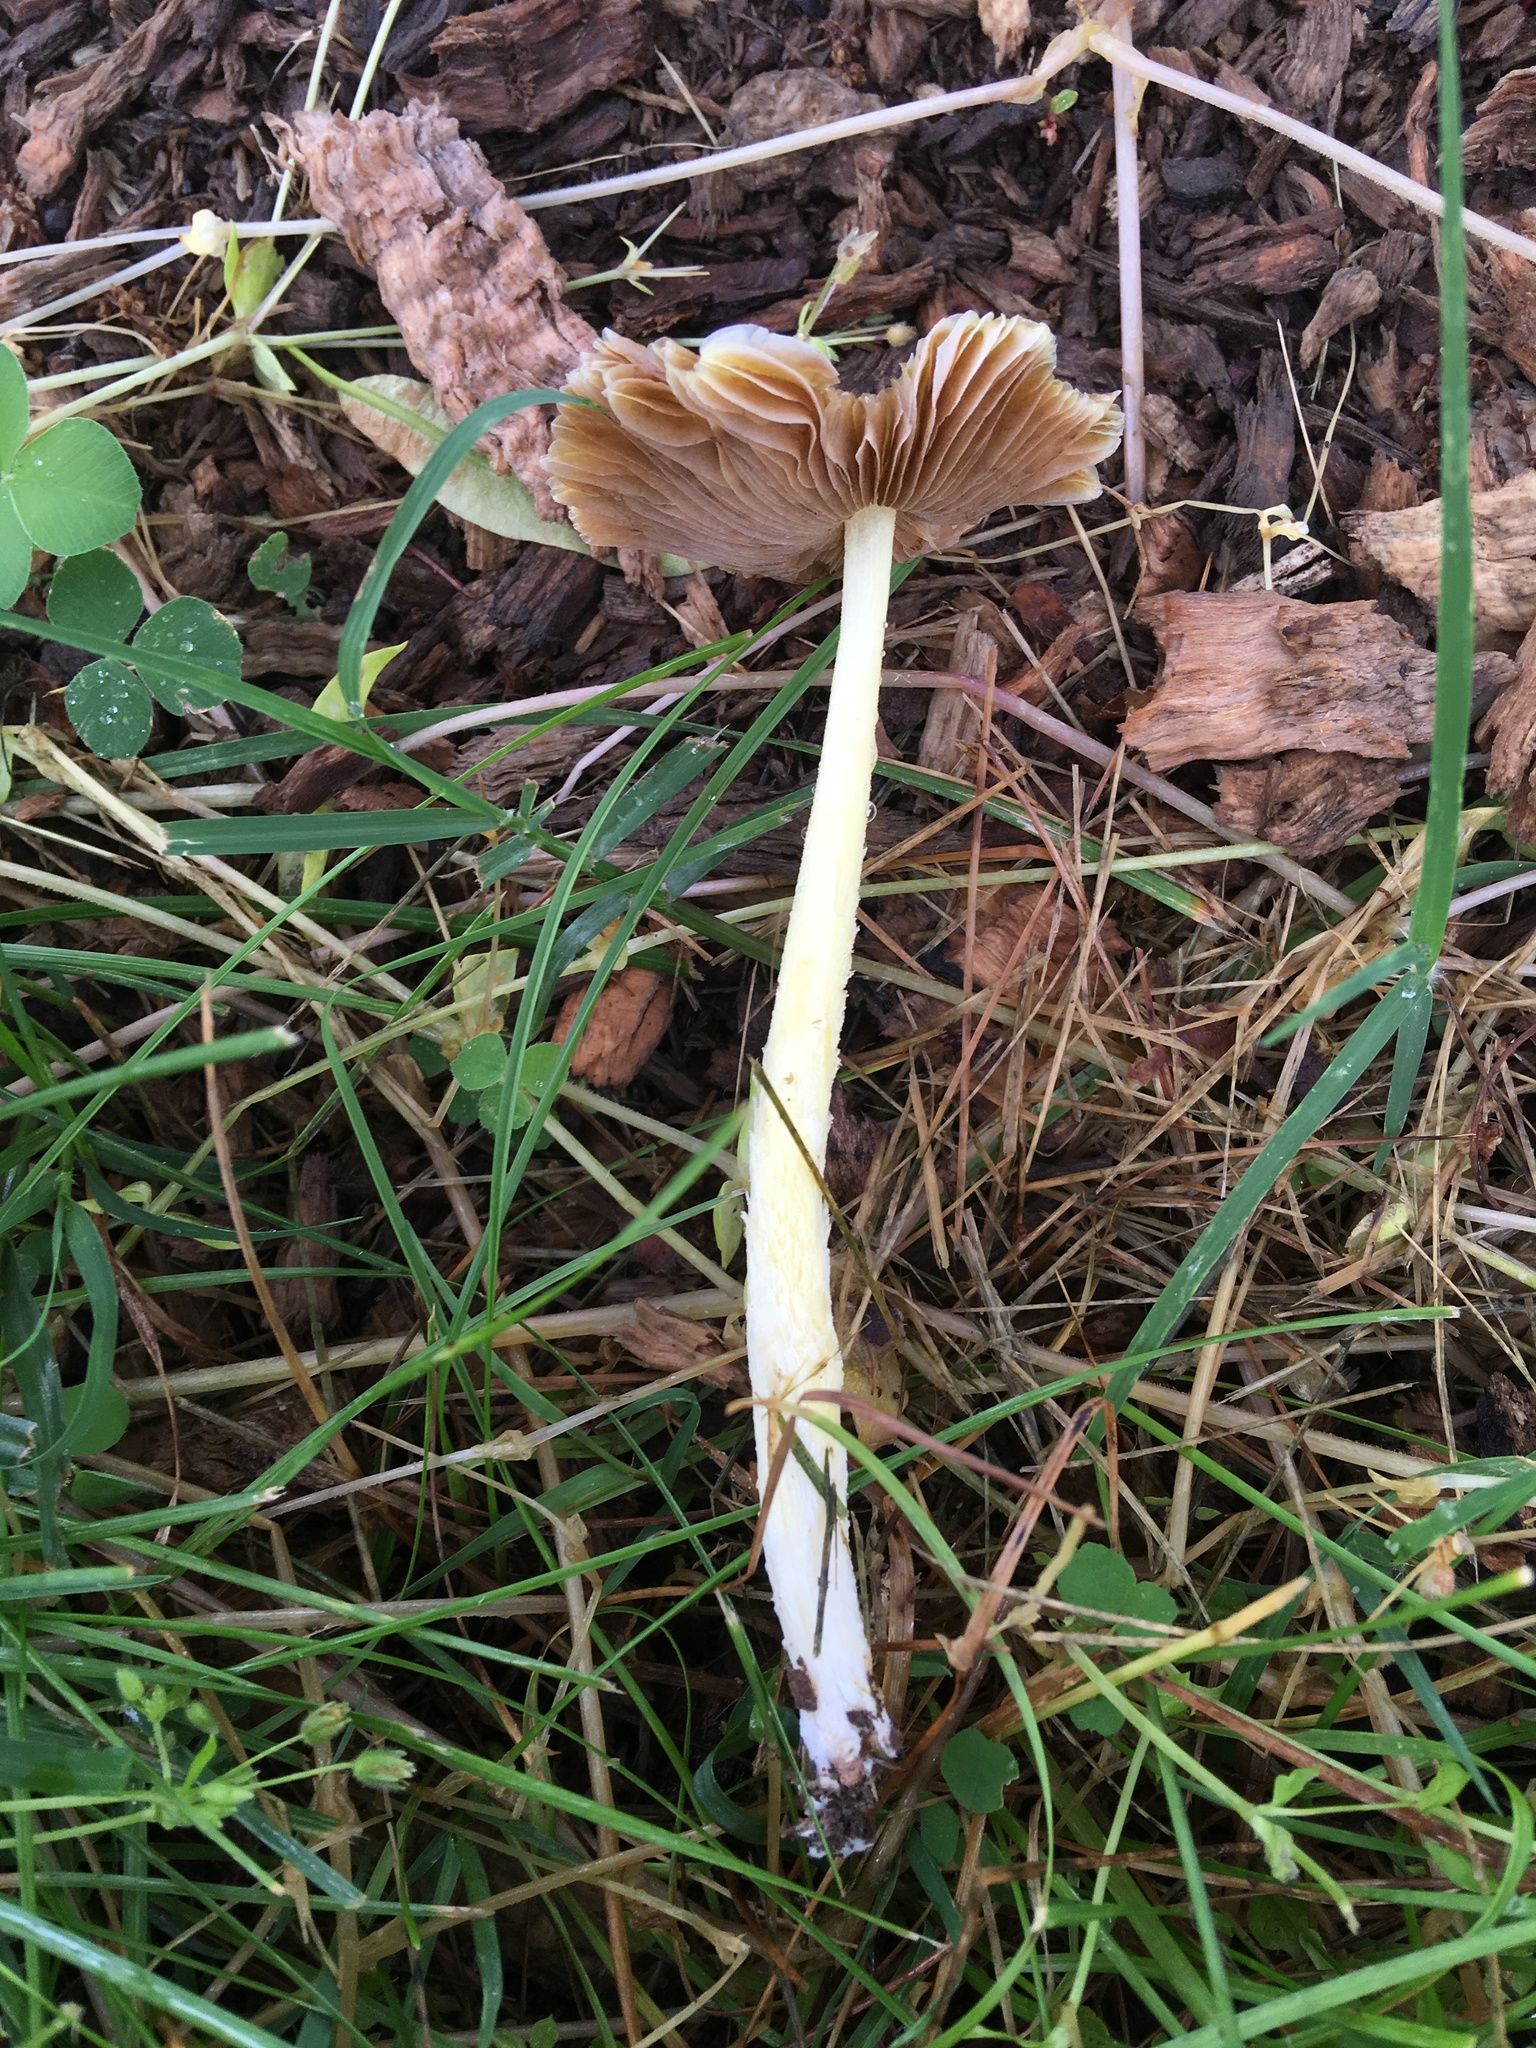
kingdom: Fungi
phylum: Basidiomycota
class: Agaricomycetes
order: Agaricales
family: Bolbitiaceae
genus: Bolbitius
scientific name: Bolbitius titubans
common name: Yellow fieldcap
